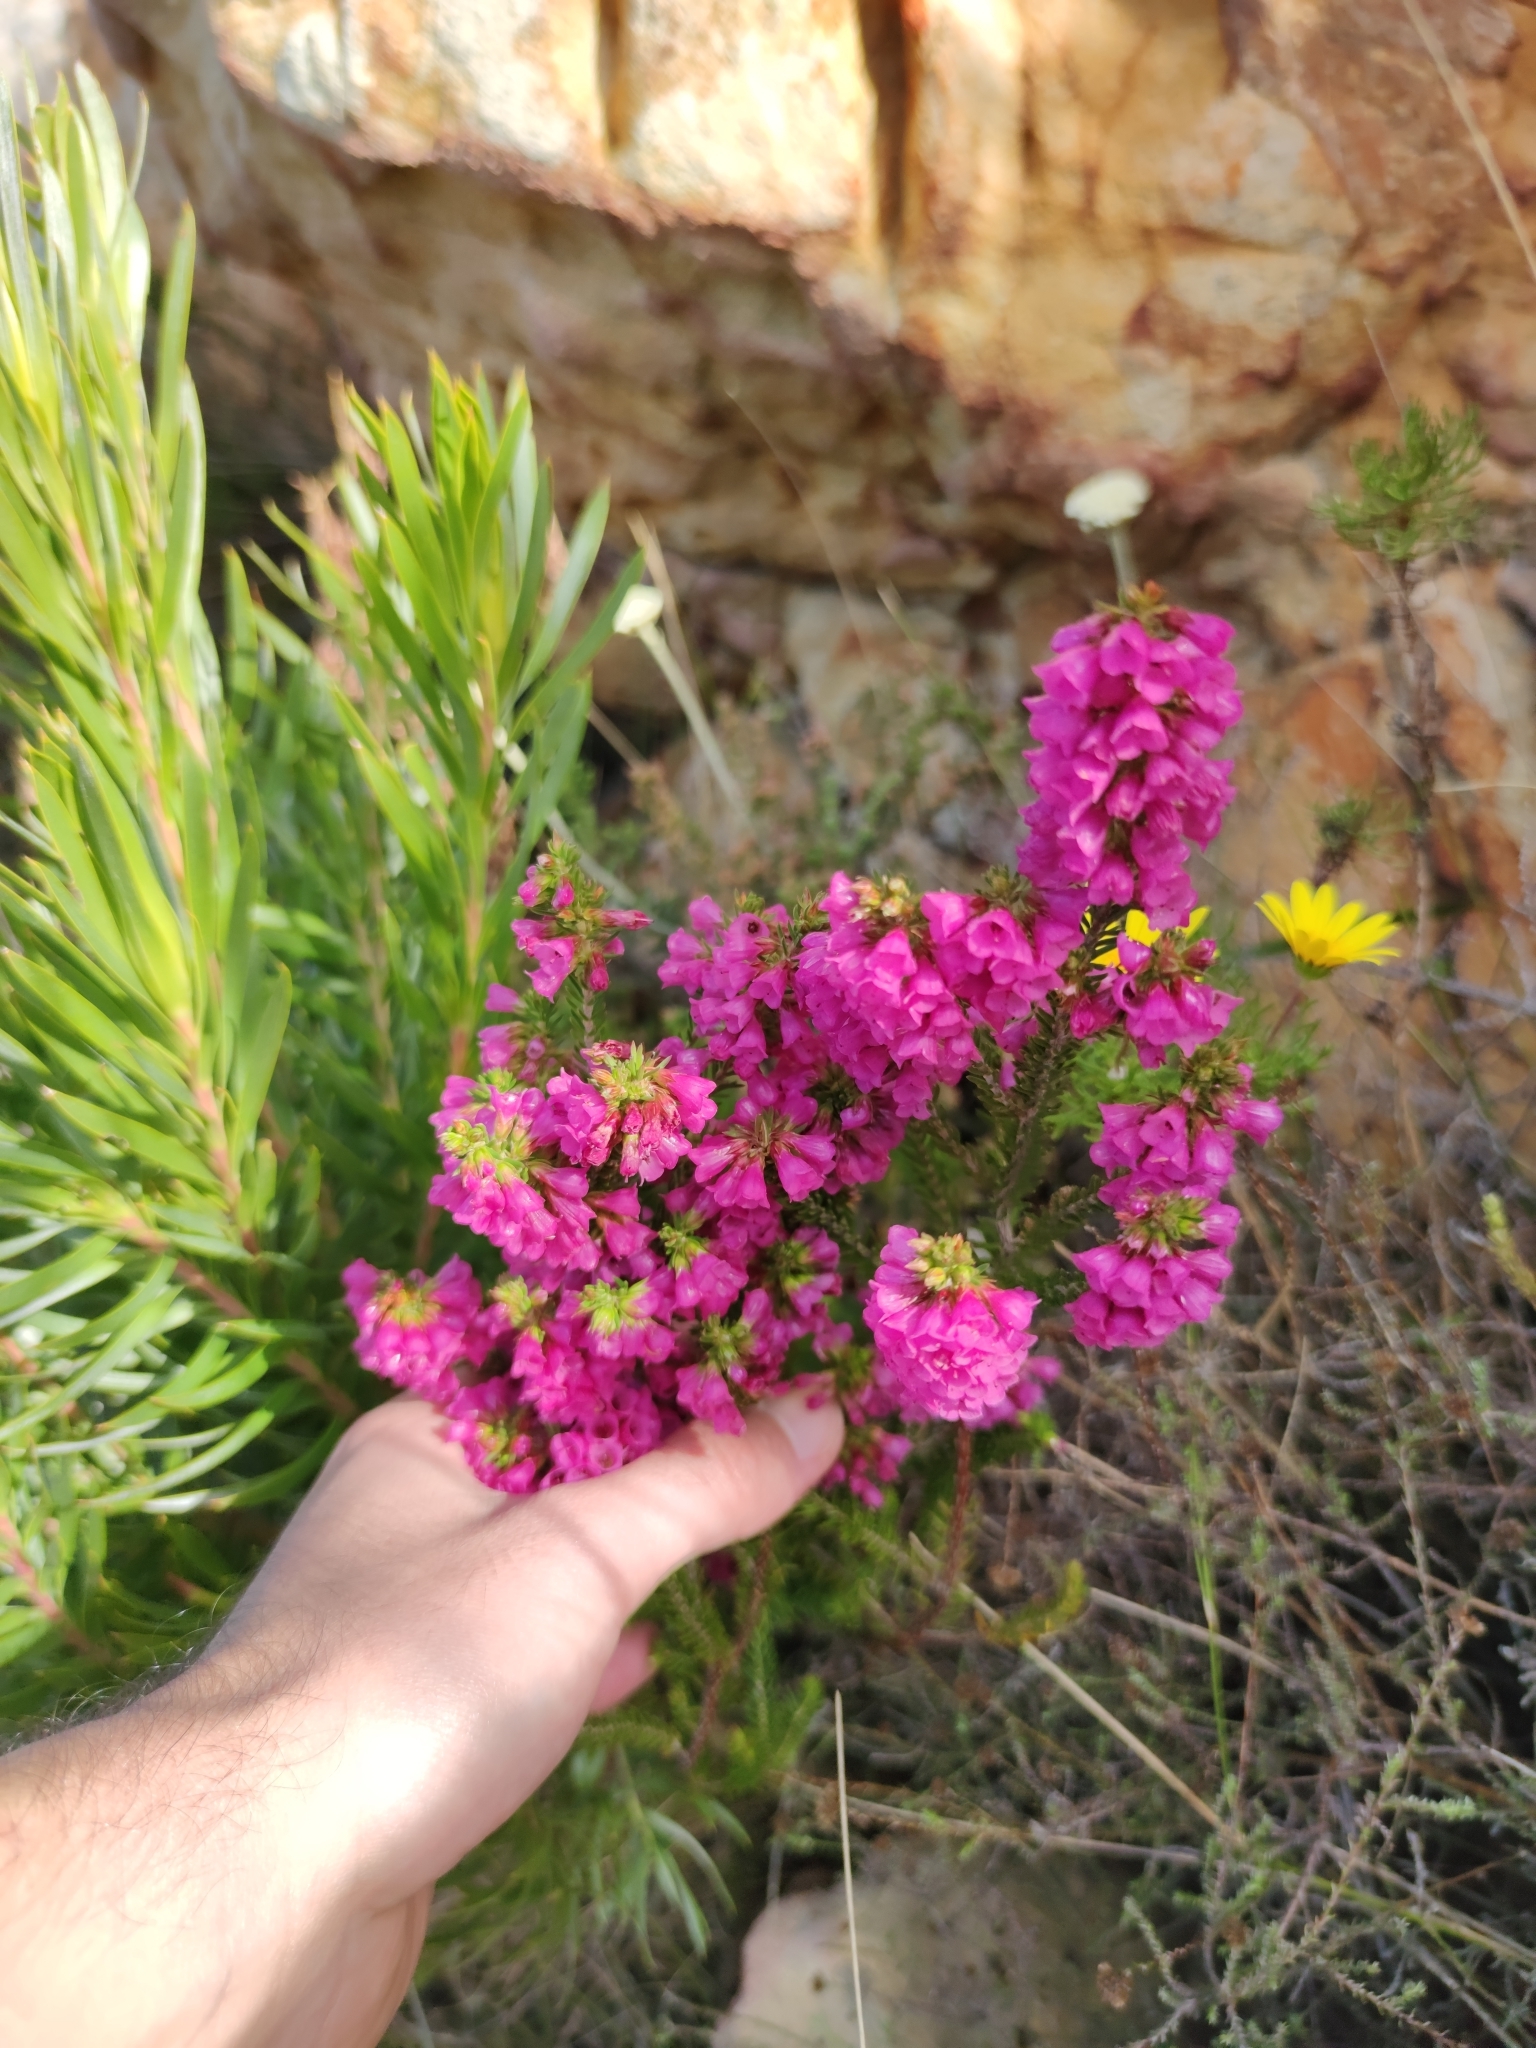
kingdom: Plantae
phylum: Tracheophyta
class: Magnoliopsida
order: Ericales
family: Ericaceae
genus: Erica
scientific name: Erica abietina
